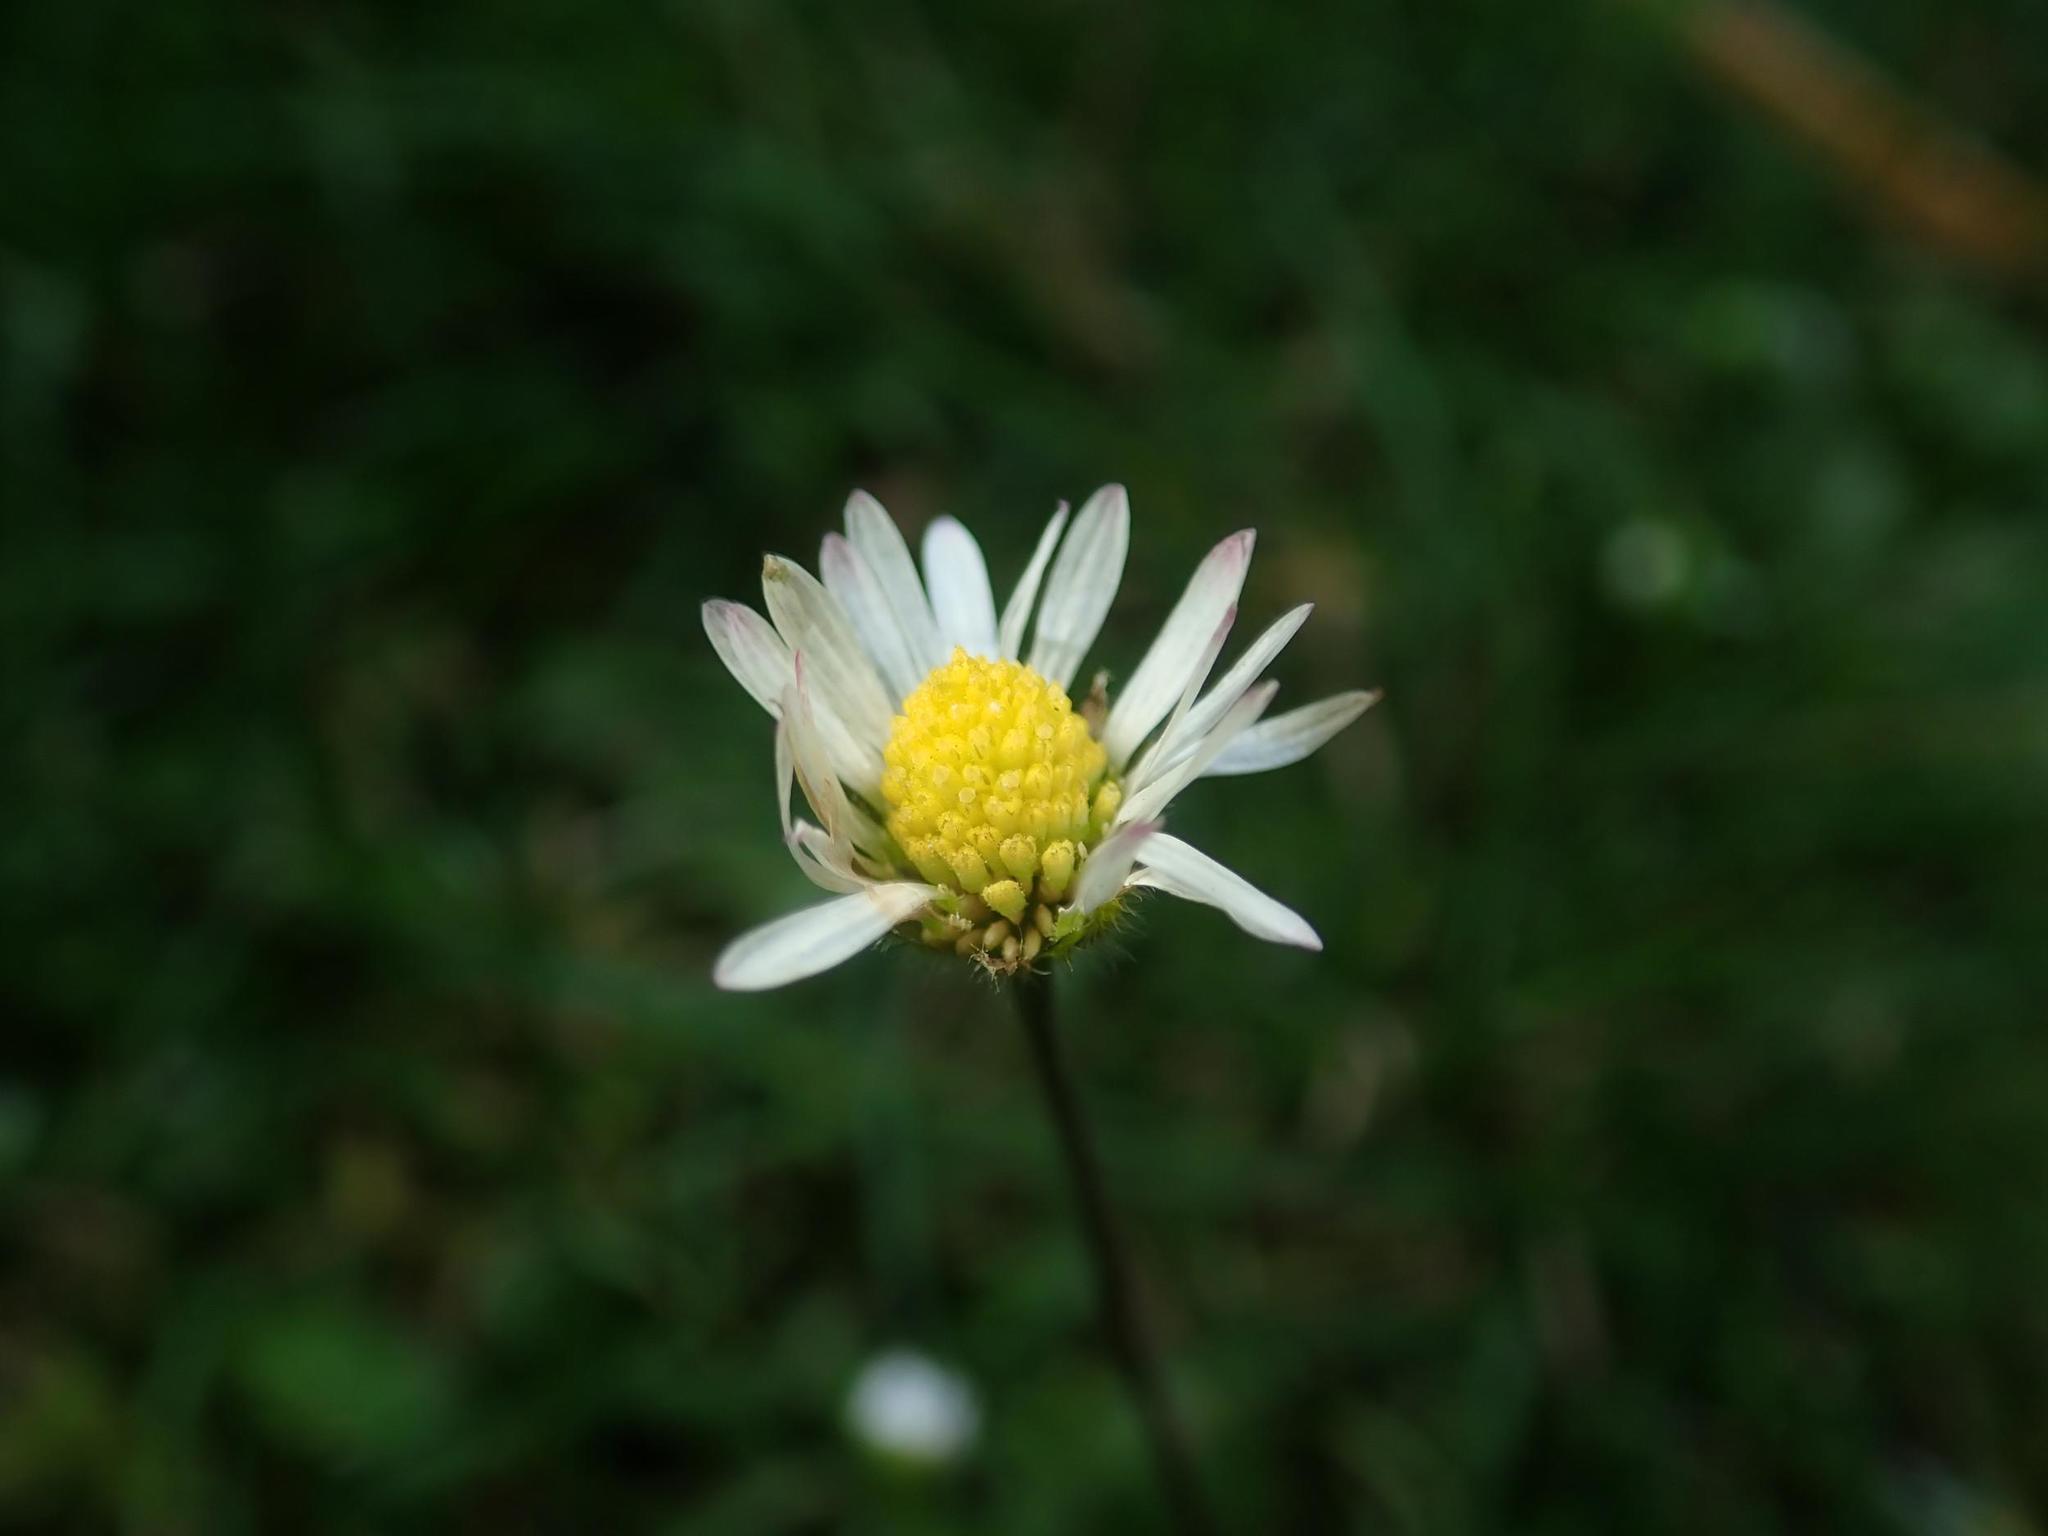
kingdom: Plantae
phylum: Tracheophyta
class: Magnoliopsida
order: Asterales
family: Asteraceae
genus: Bellis
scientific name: Bellis perennis
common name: Lawndaisy
